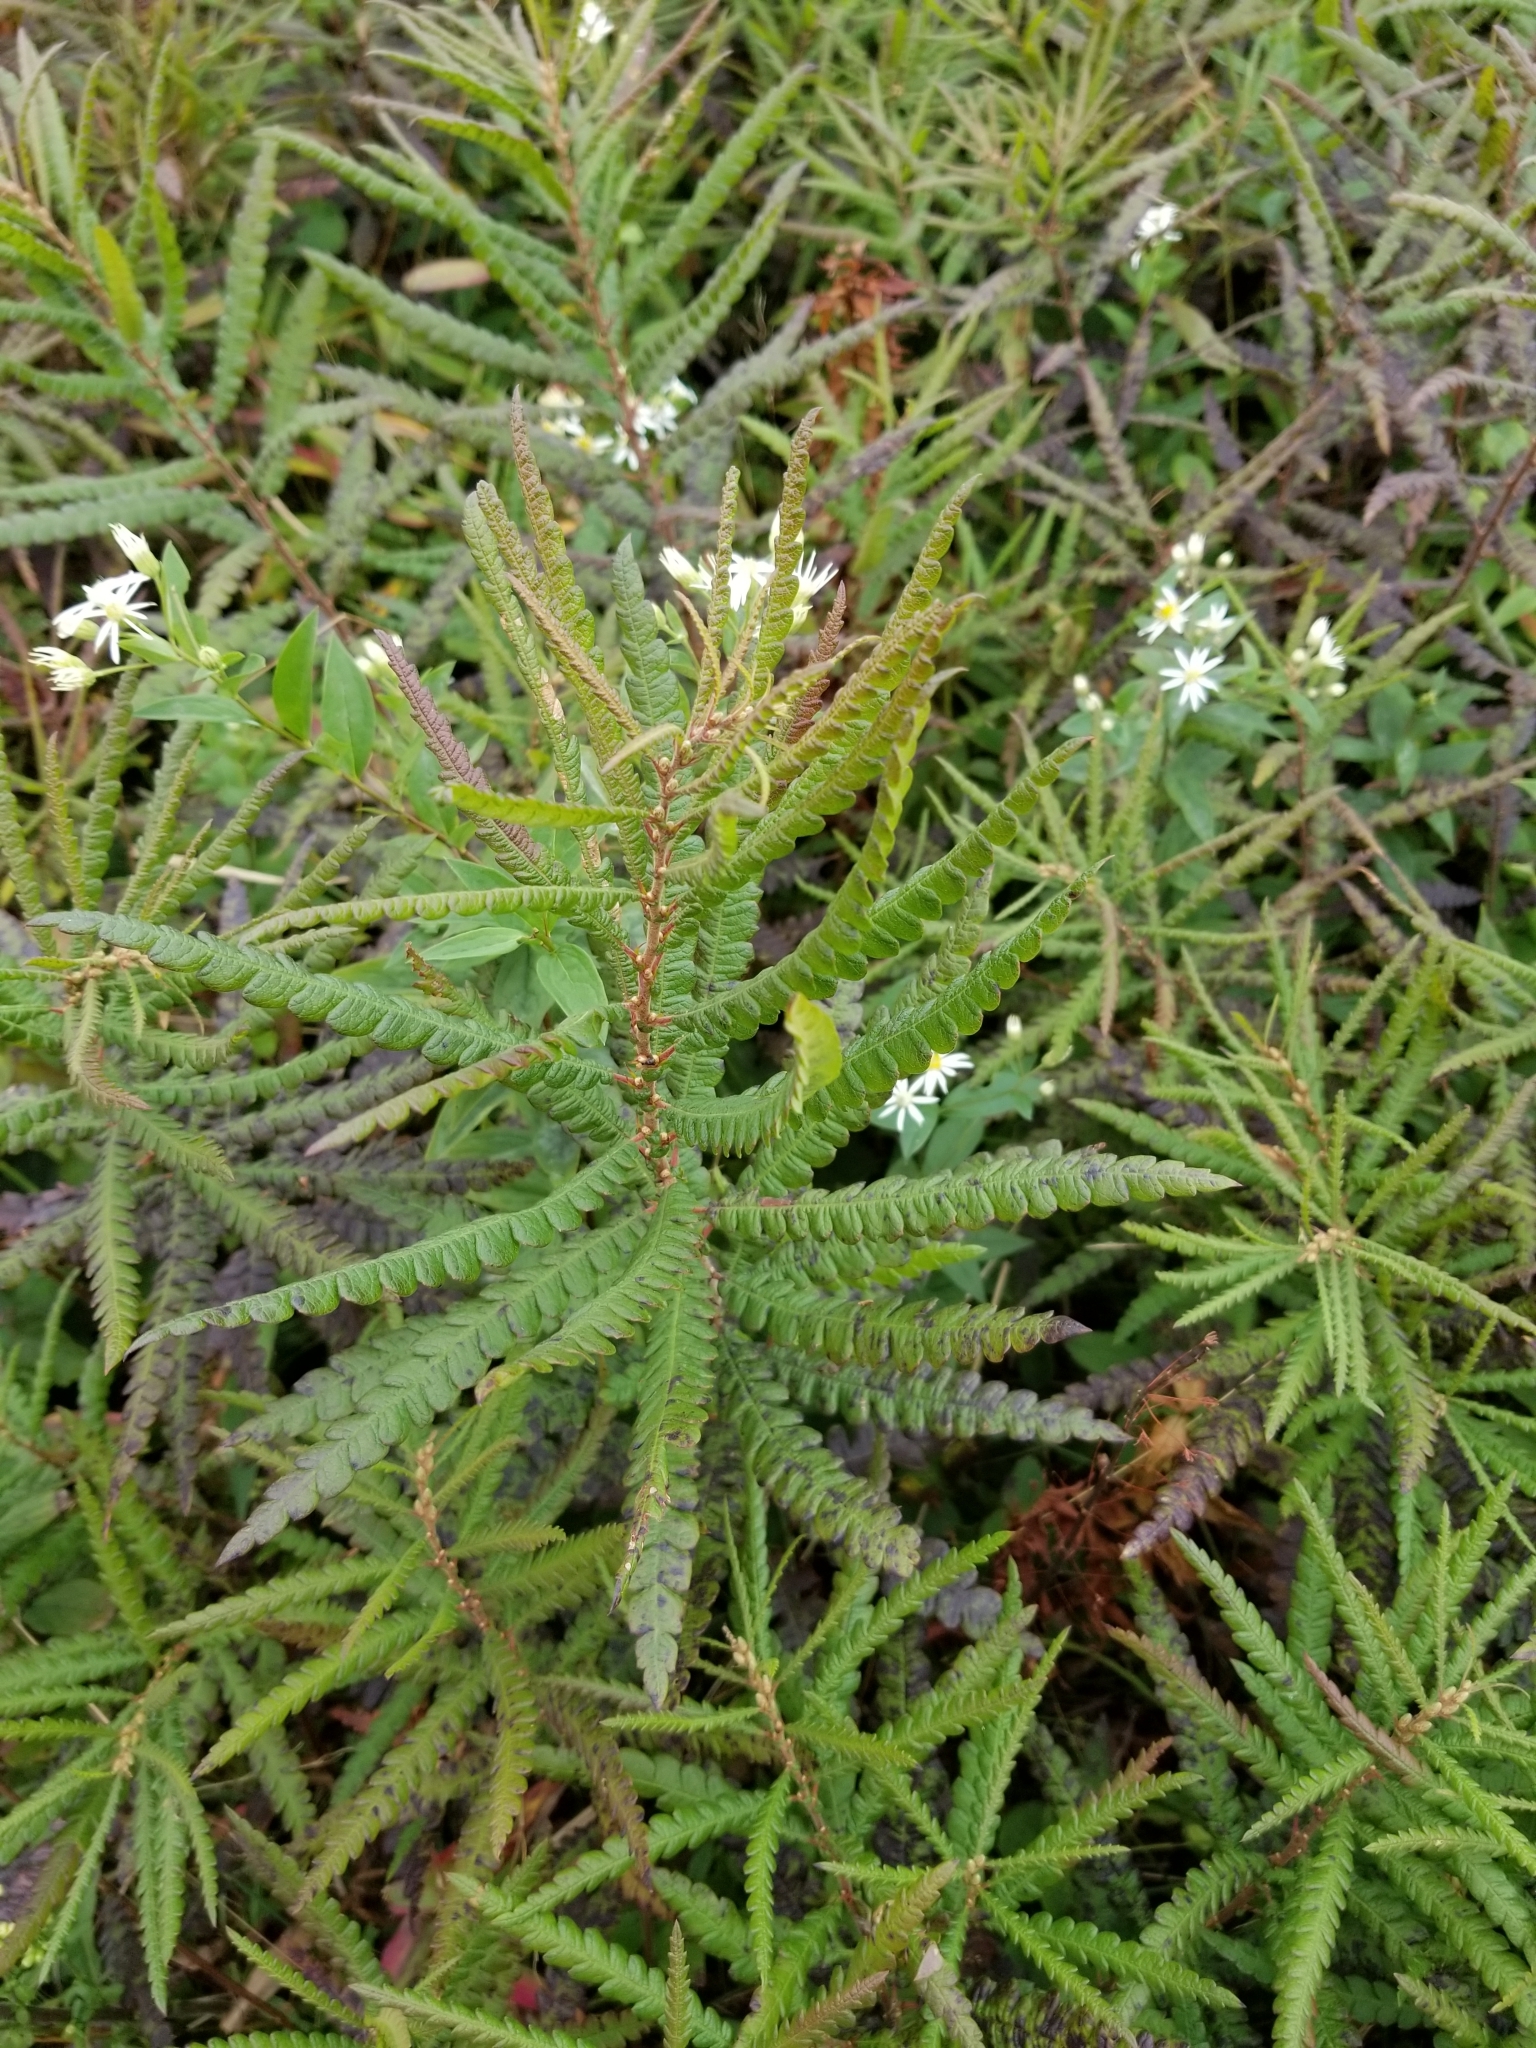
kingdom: Plantae
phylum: Tracheophyta
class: Magnoliopsida
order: Fagales
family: Myricaceae
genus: Comptonia
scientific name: Comptonia peregrina
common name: Sweet-fern
